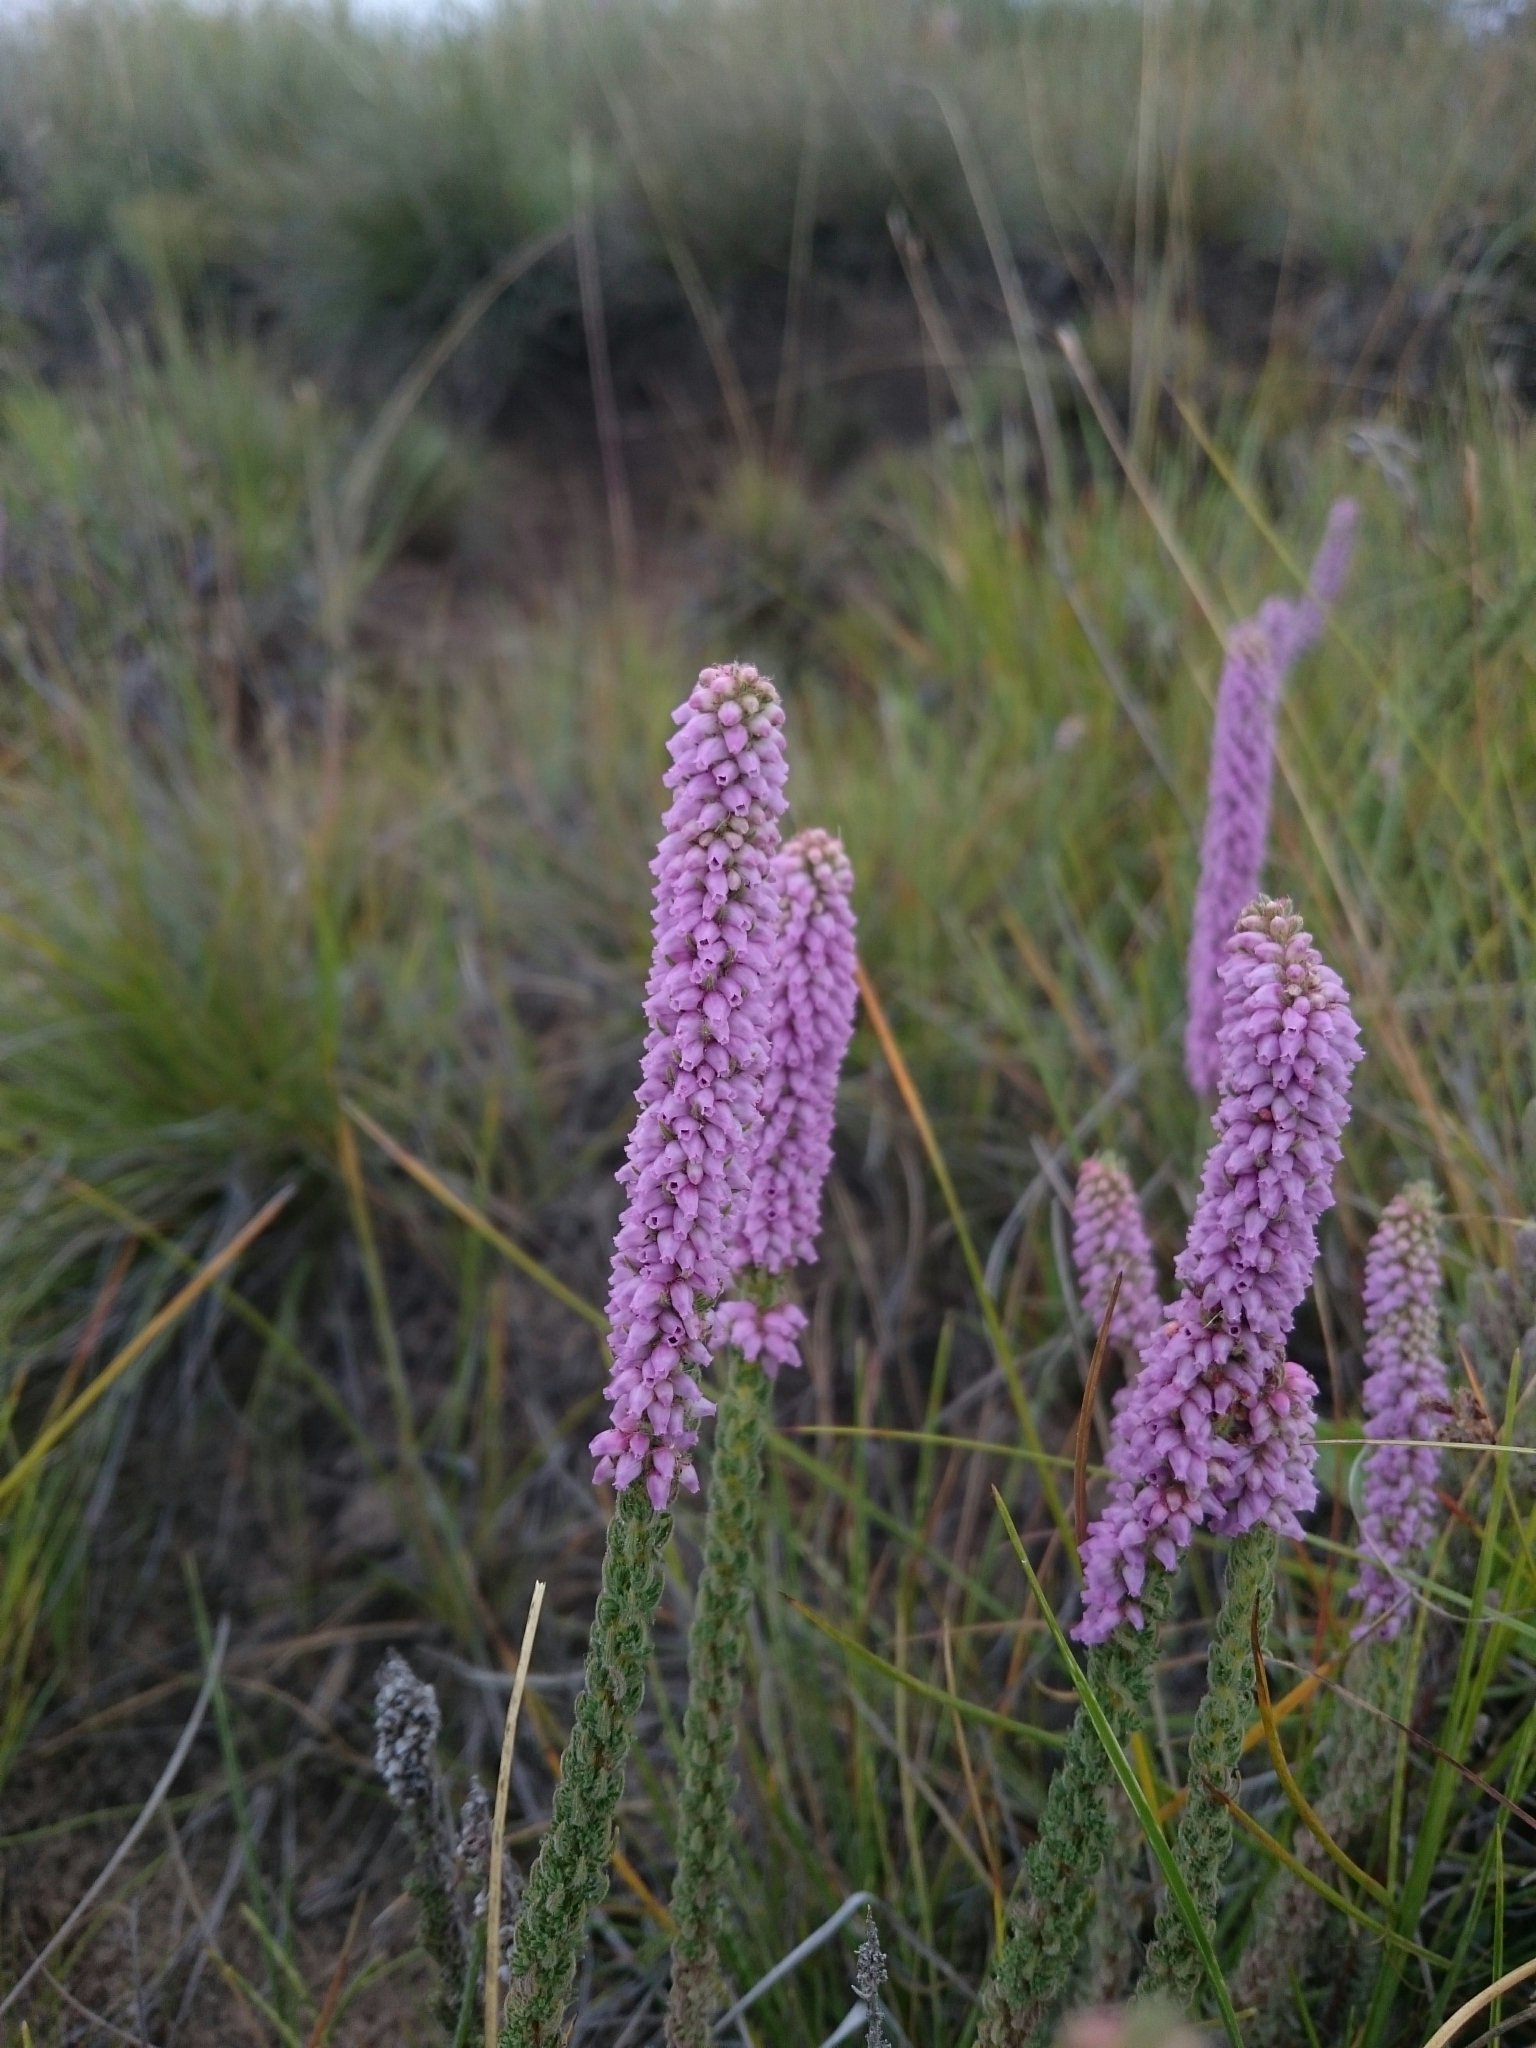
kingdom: Plantae
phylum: Tracheophyta
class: Magnoliopsida
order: Ericales
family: Ericaceae
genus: Erica
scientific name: Erica alopecurus
